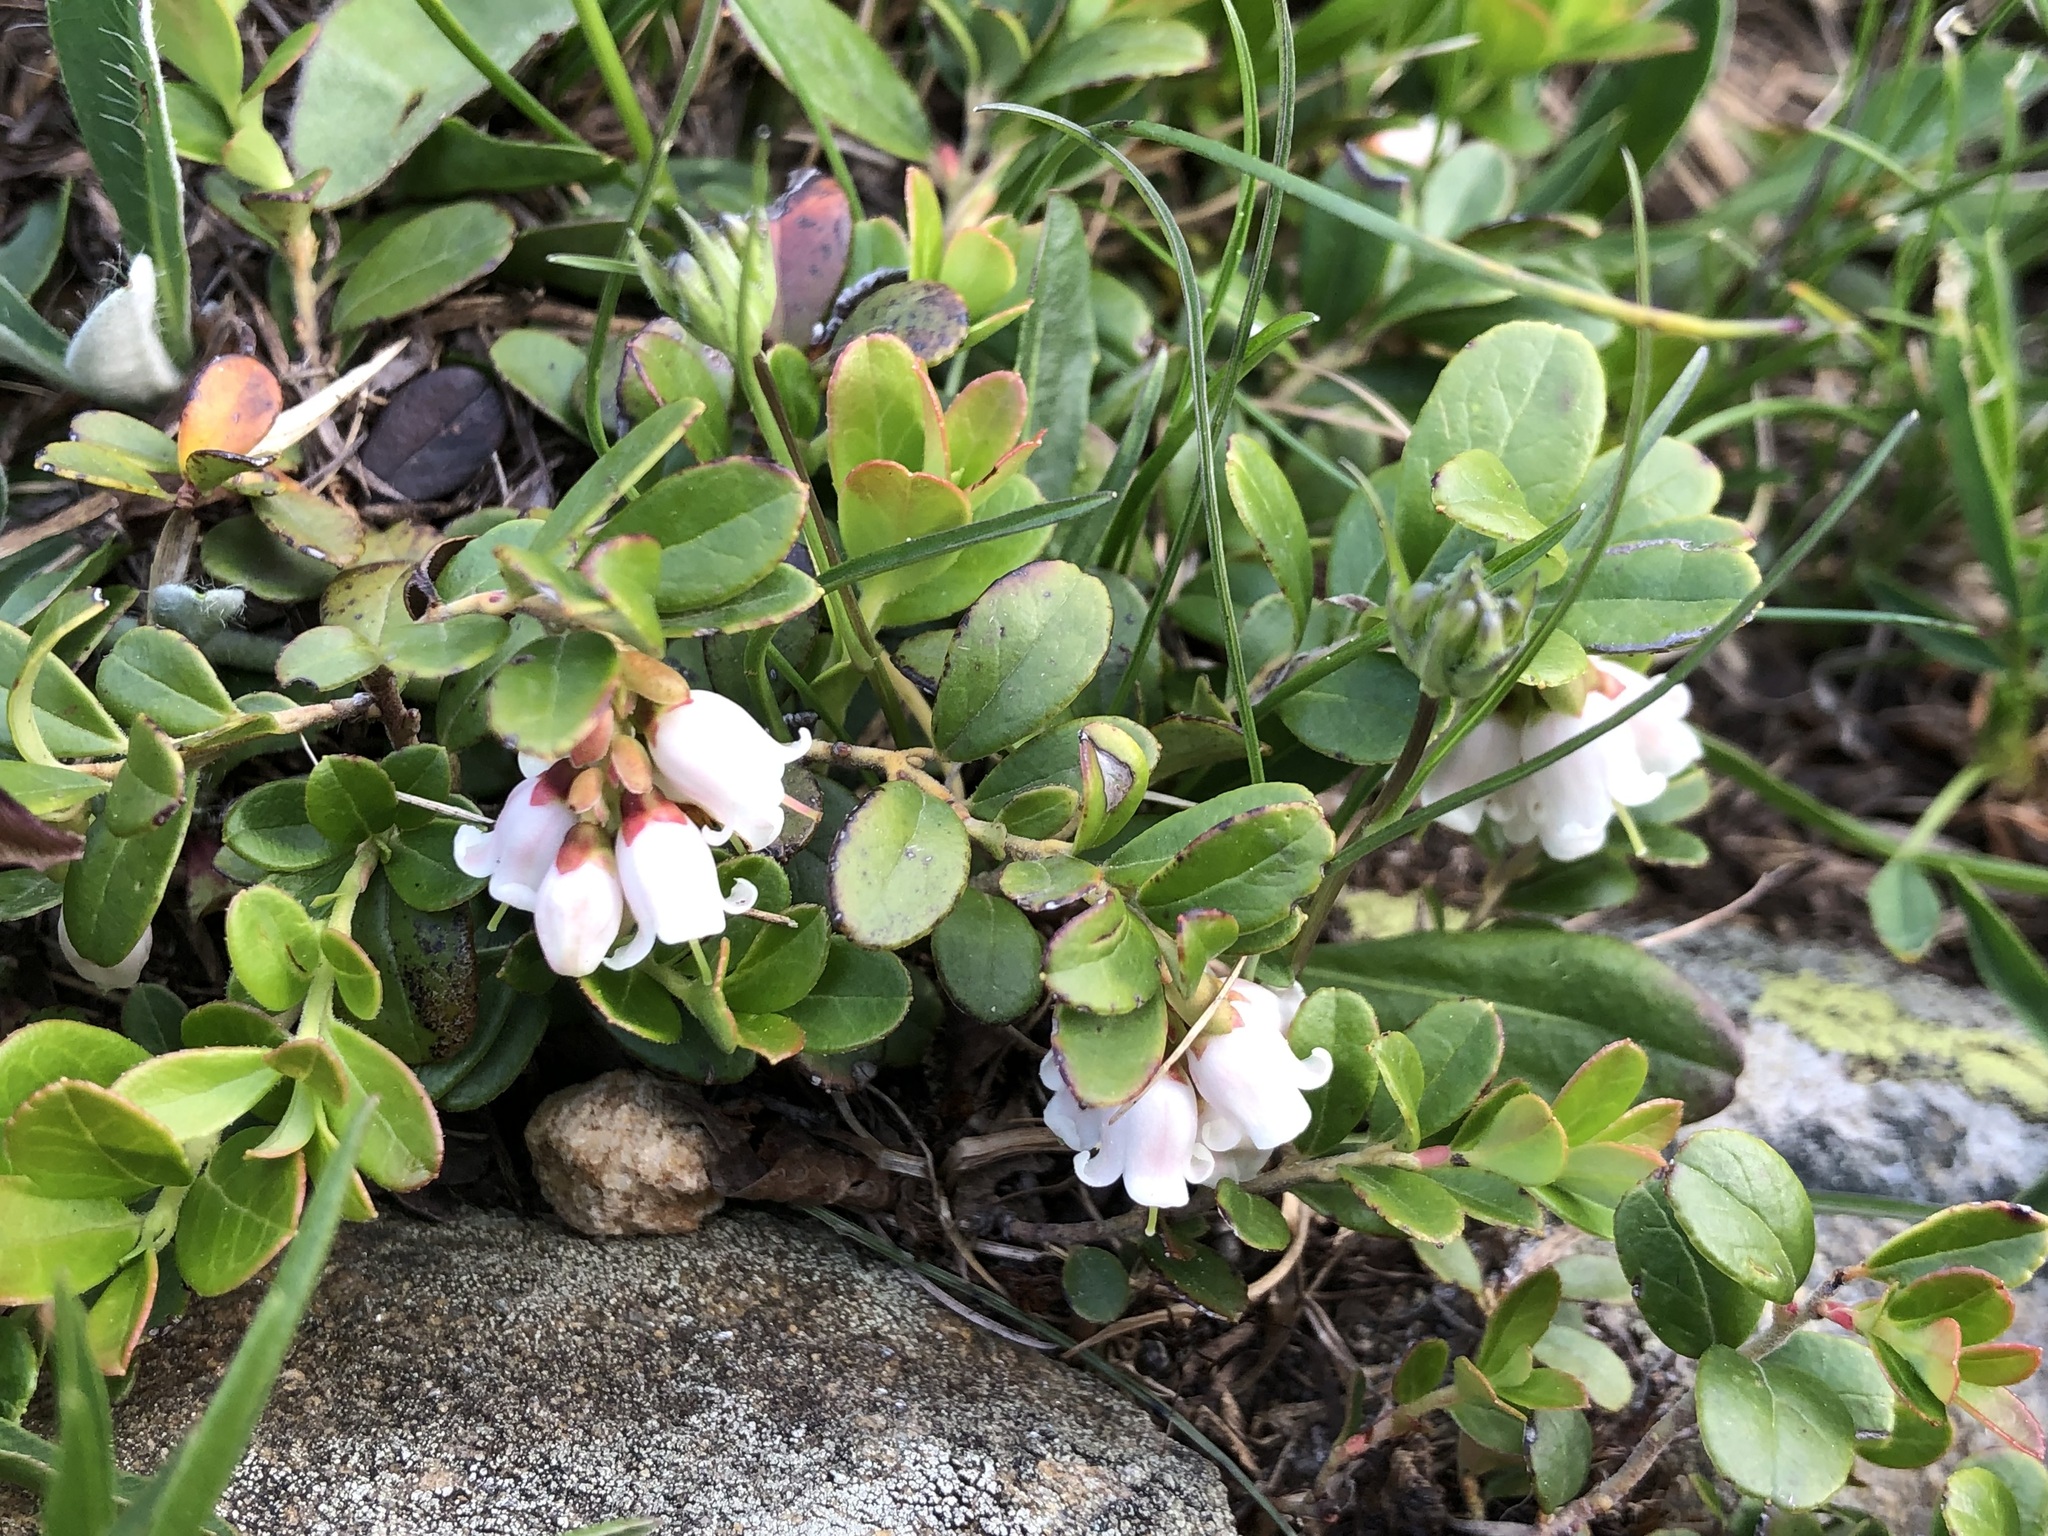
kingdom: Plantae
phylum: Tracheophyta
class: Magnoliopsida
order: Ericales
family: Ericaceae
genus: Vaccinium
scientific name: Vaccinium vitis-idaea
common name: Cowberry
